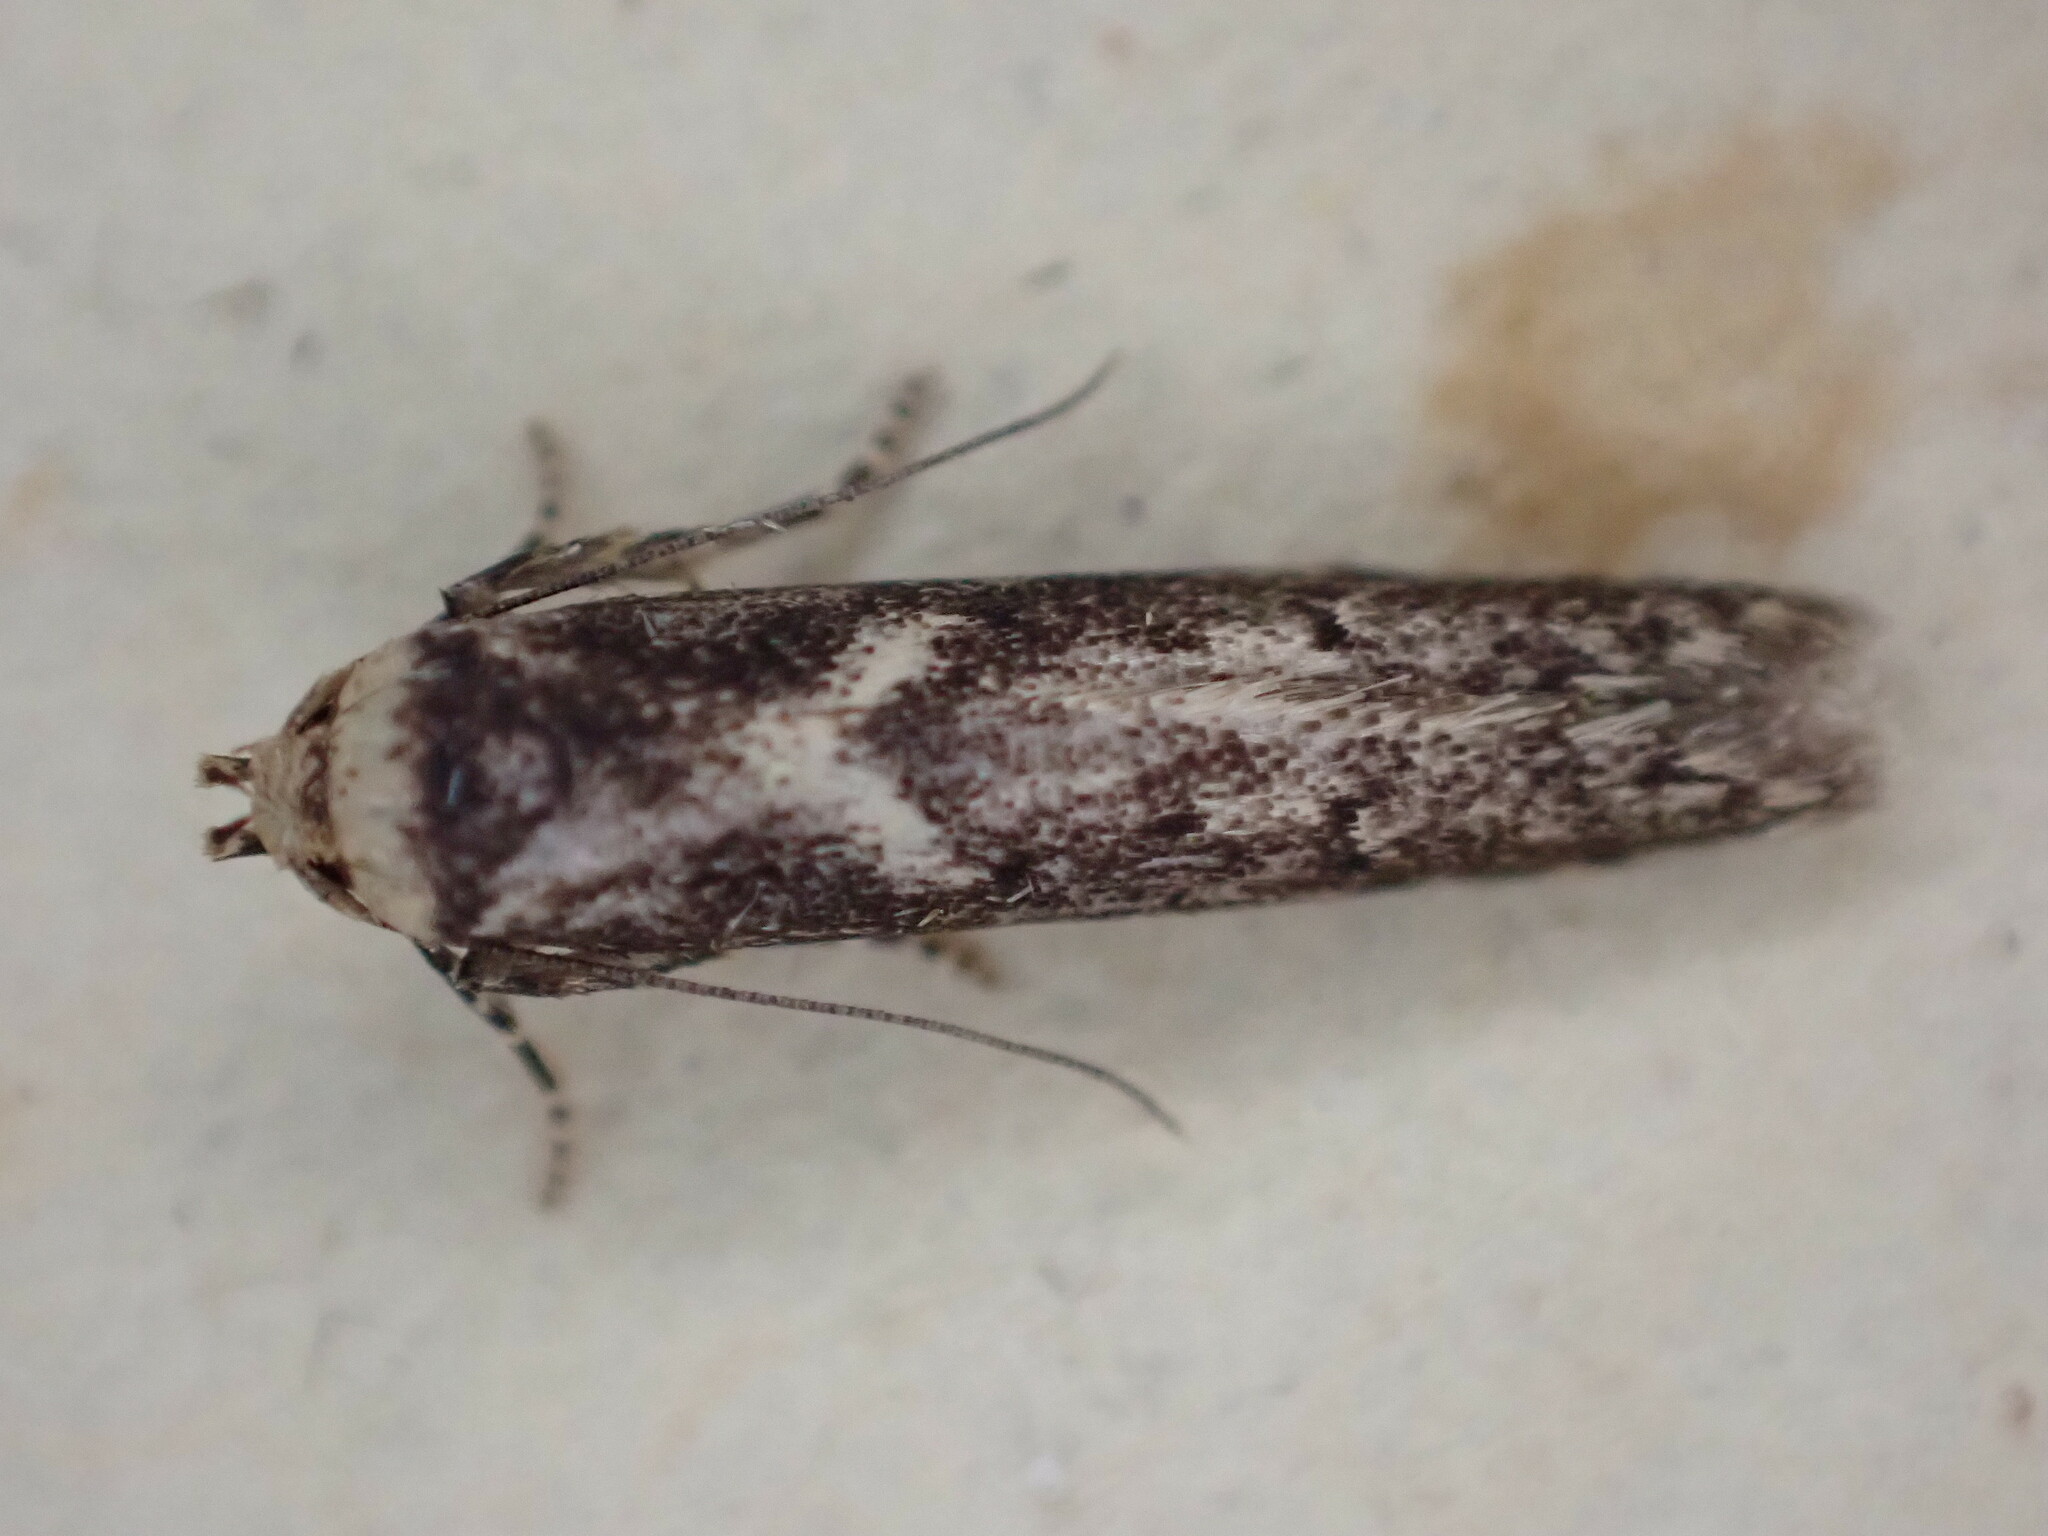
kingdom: Animalia
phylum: Arthropoda
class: Insecta
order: Lepidoptera
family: Blastobasidae
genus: Blastobasis
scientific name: Blastobasis adustella
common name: Dingy dowd
